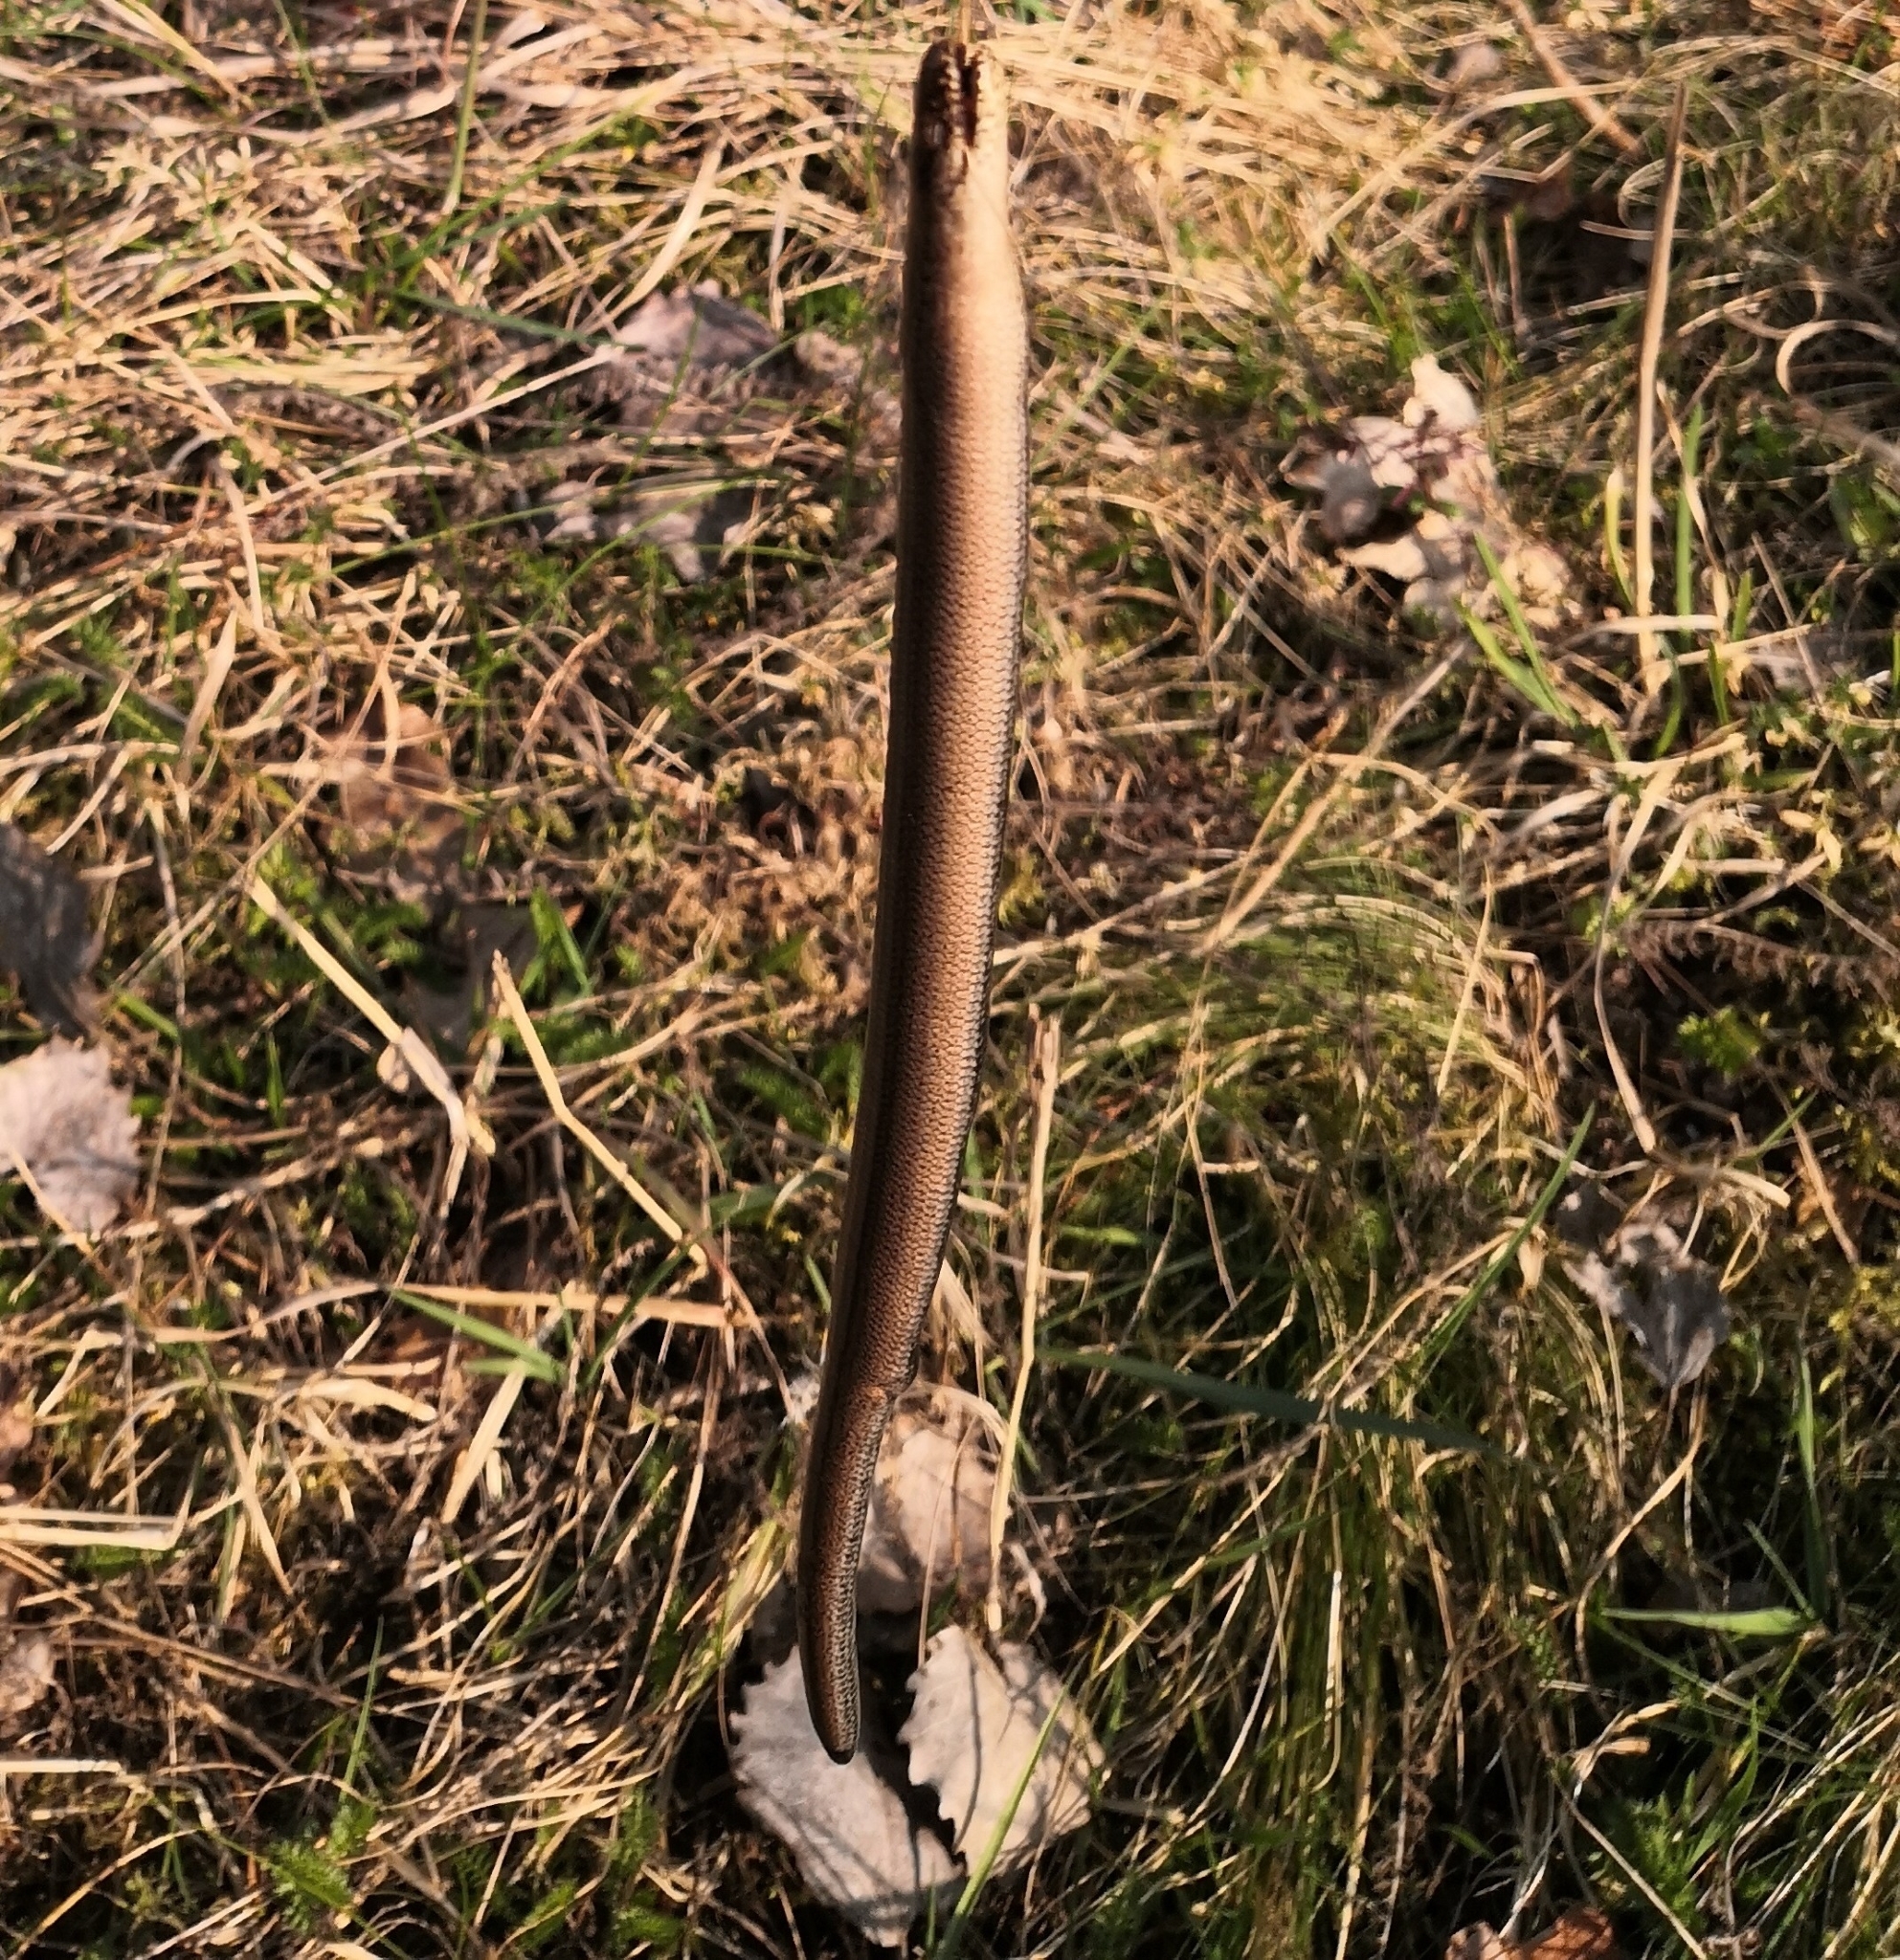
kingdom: Animalia
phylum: Chordata
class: Squamata
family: Anguidae
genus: Anguis
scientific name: Anguis fragilis
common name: Slow worm
